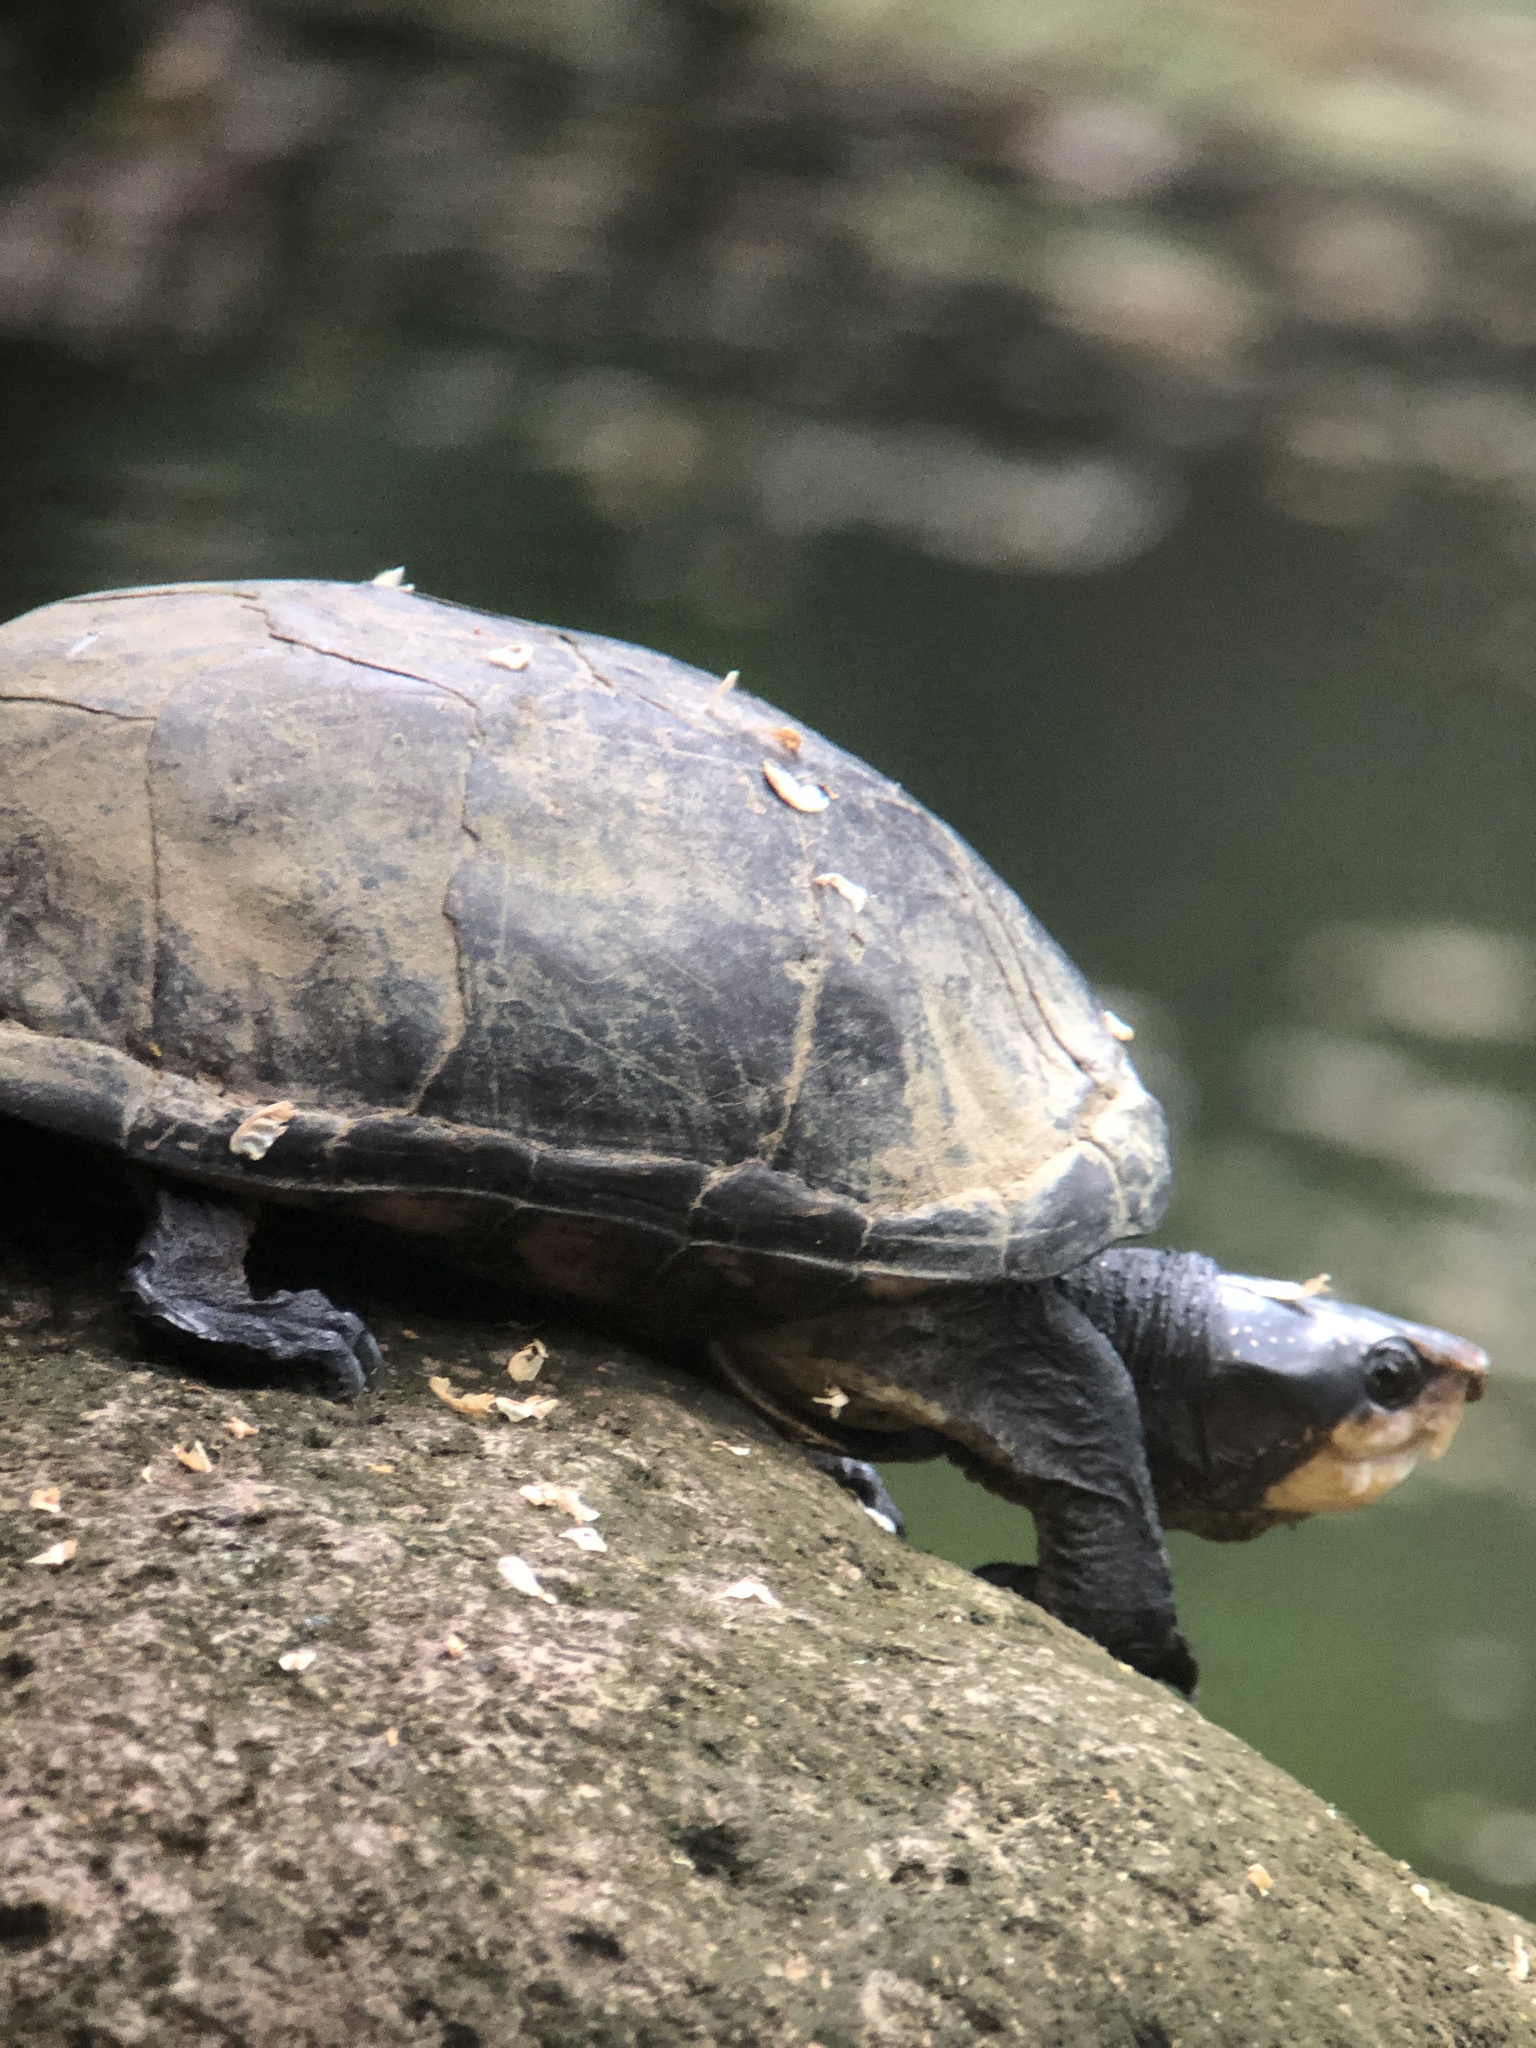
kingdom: Animalia
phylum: Chordata
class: Testudines
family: Kinosternidae
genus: Kinosternon
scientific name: Kinosternon leucostomum
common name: White-lipped mud turtle
